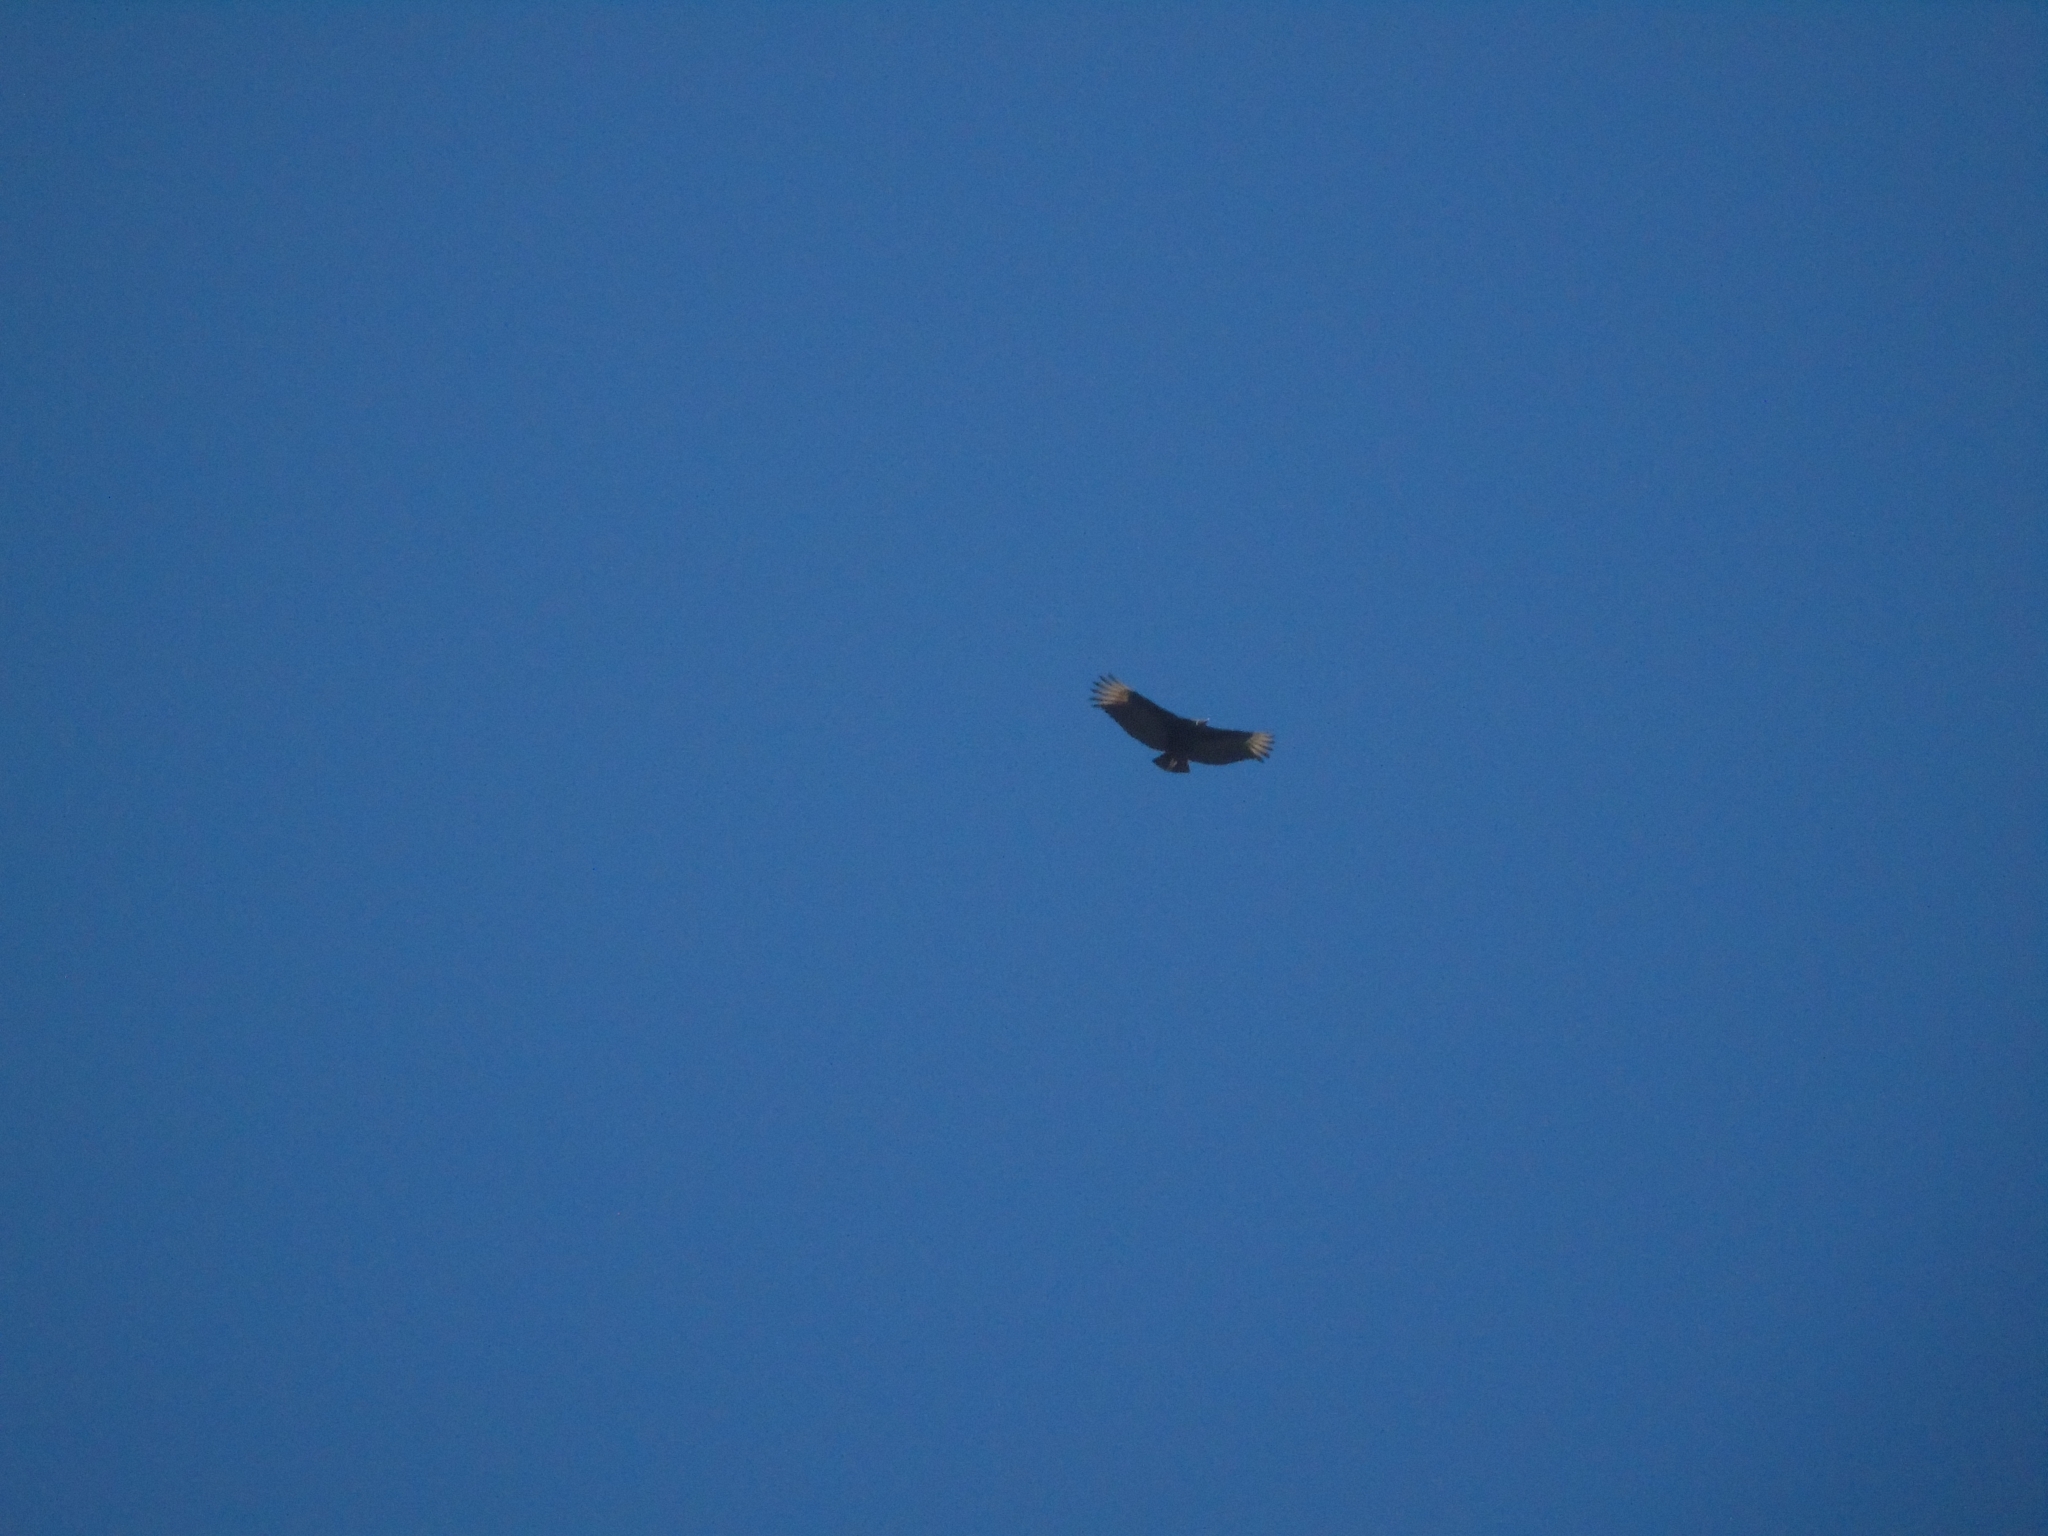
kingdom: Animalia
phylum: Chordata
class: Aves
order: Accipitriformes
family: Cathartidae
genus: Coragyps
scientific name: Coragyps atratus
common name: Black vulture
